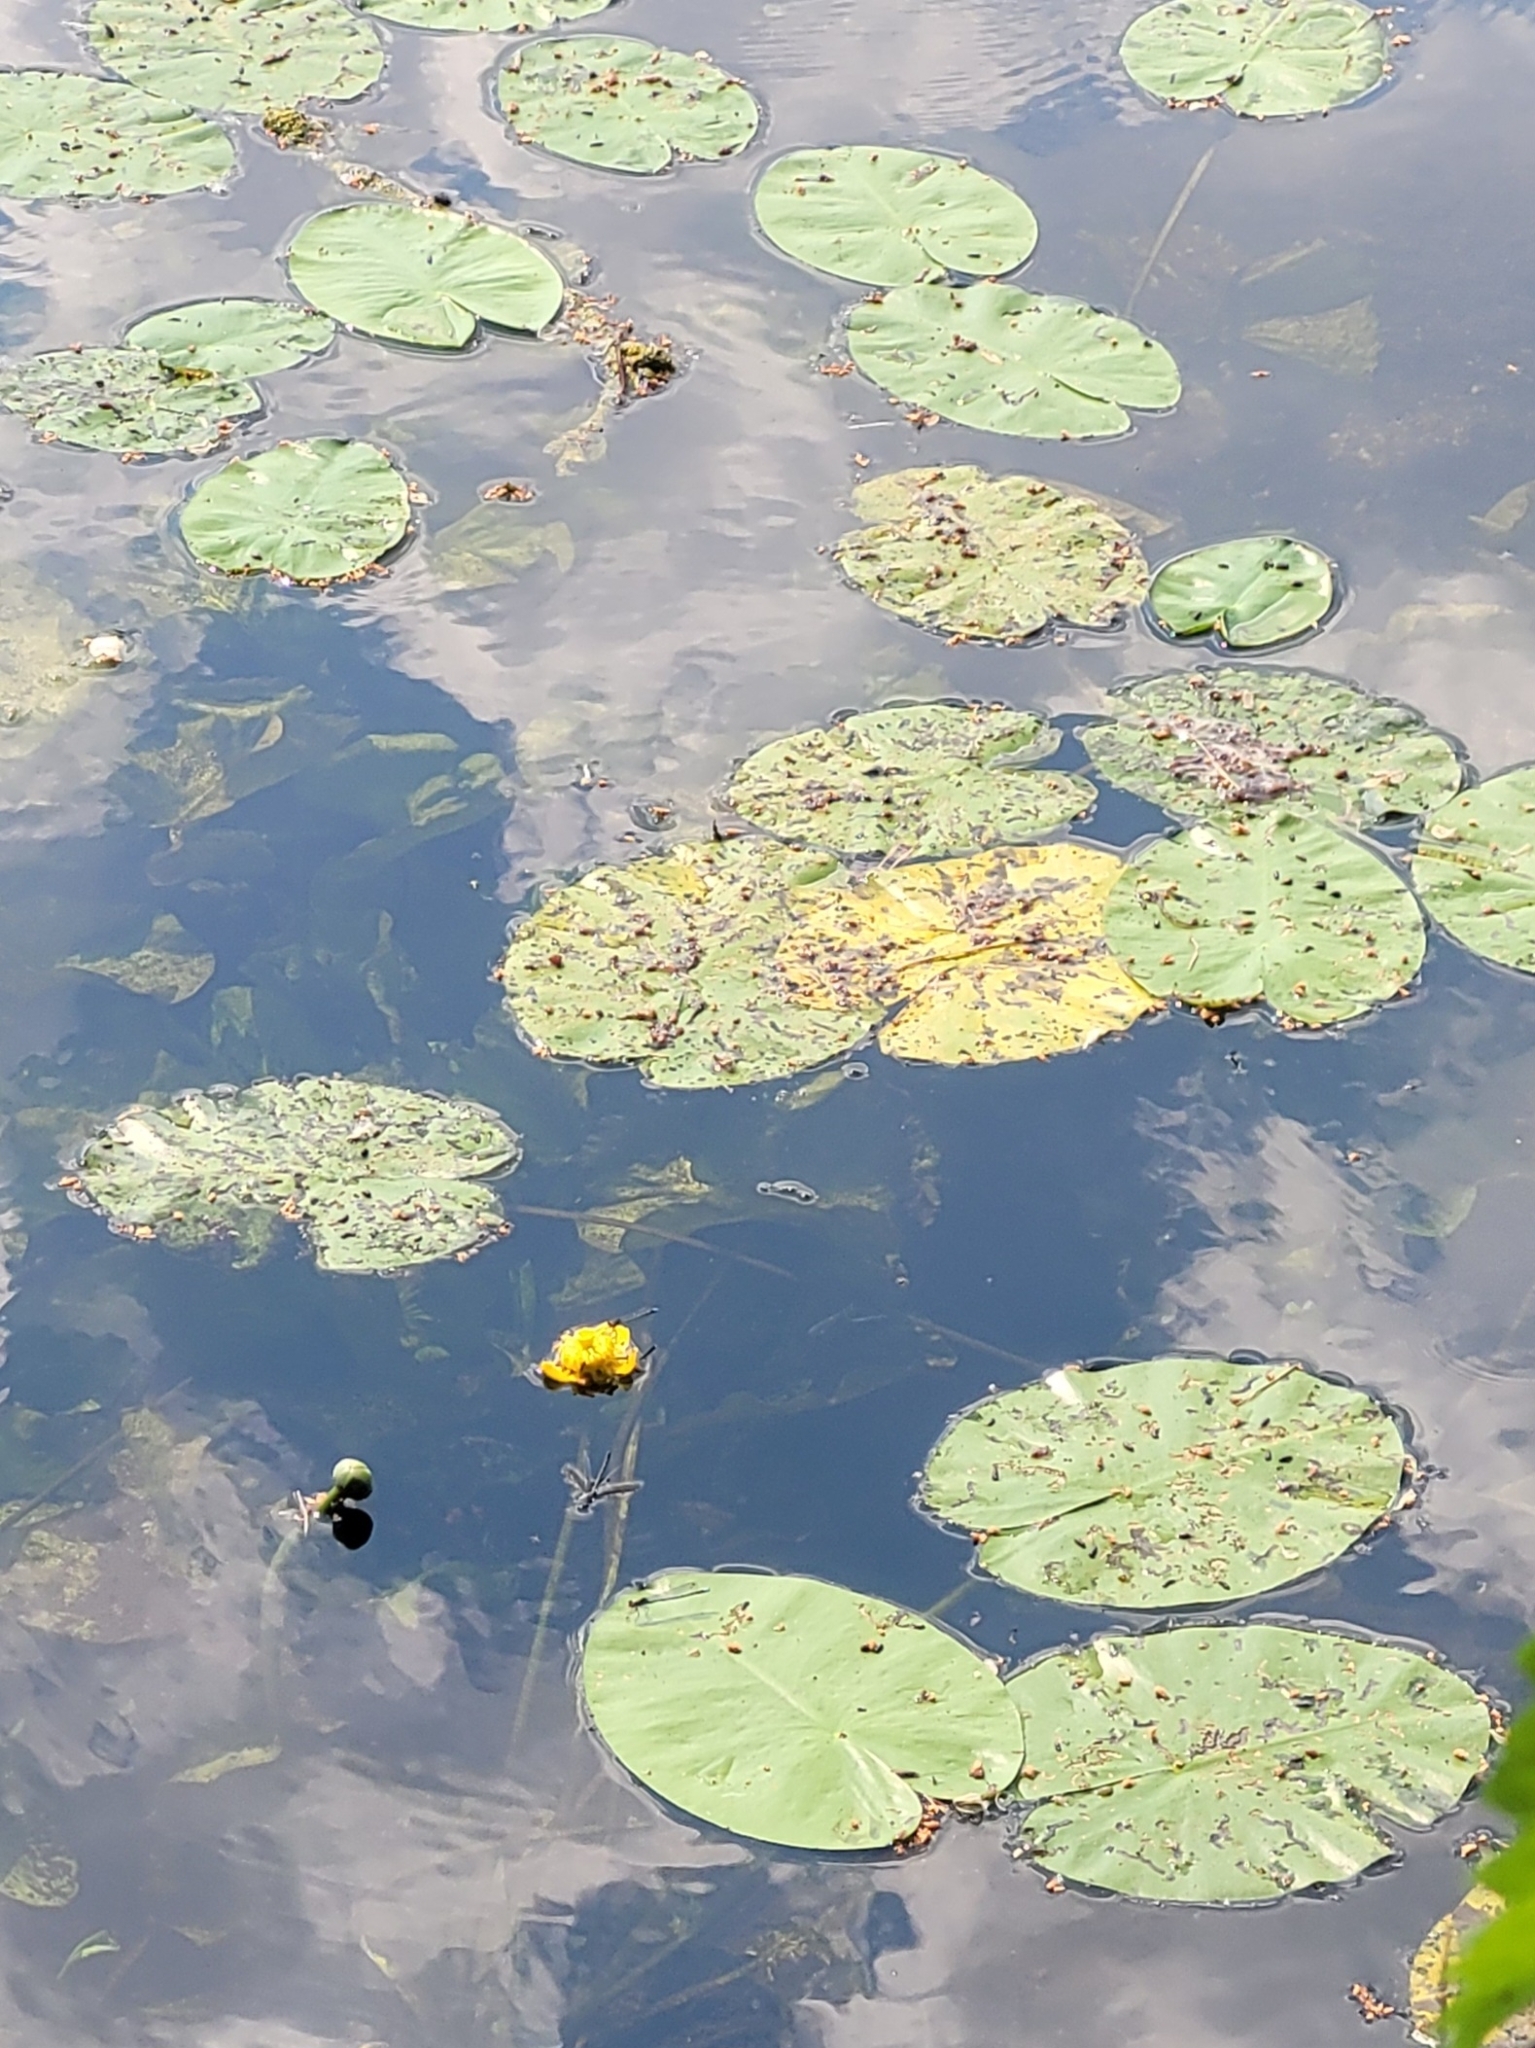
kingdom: Plantae
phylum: Tracheophyta
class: Magnoliopsida
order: Nymphaeales
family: Nymphaeaceae
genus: Nuphar
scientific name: Nuphar lutea
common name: Yellow water-lily
